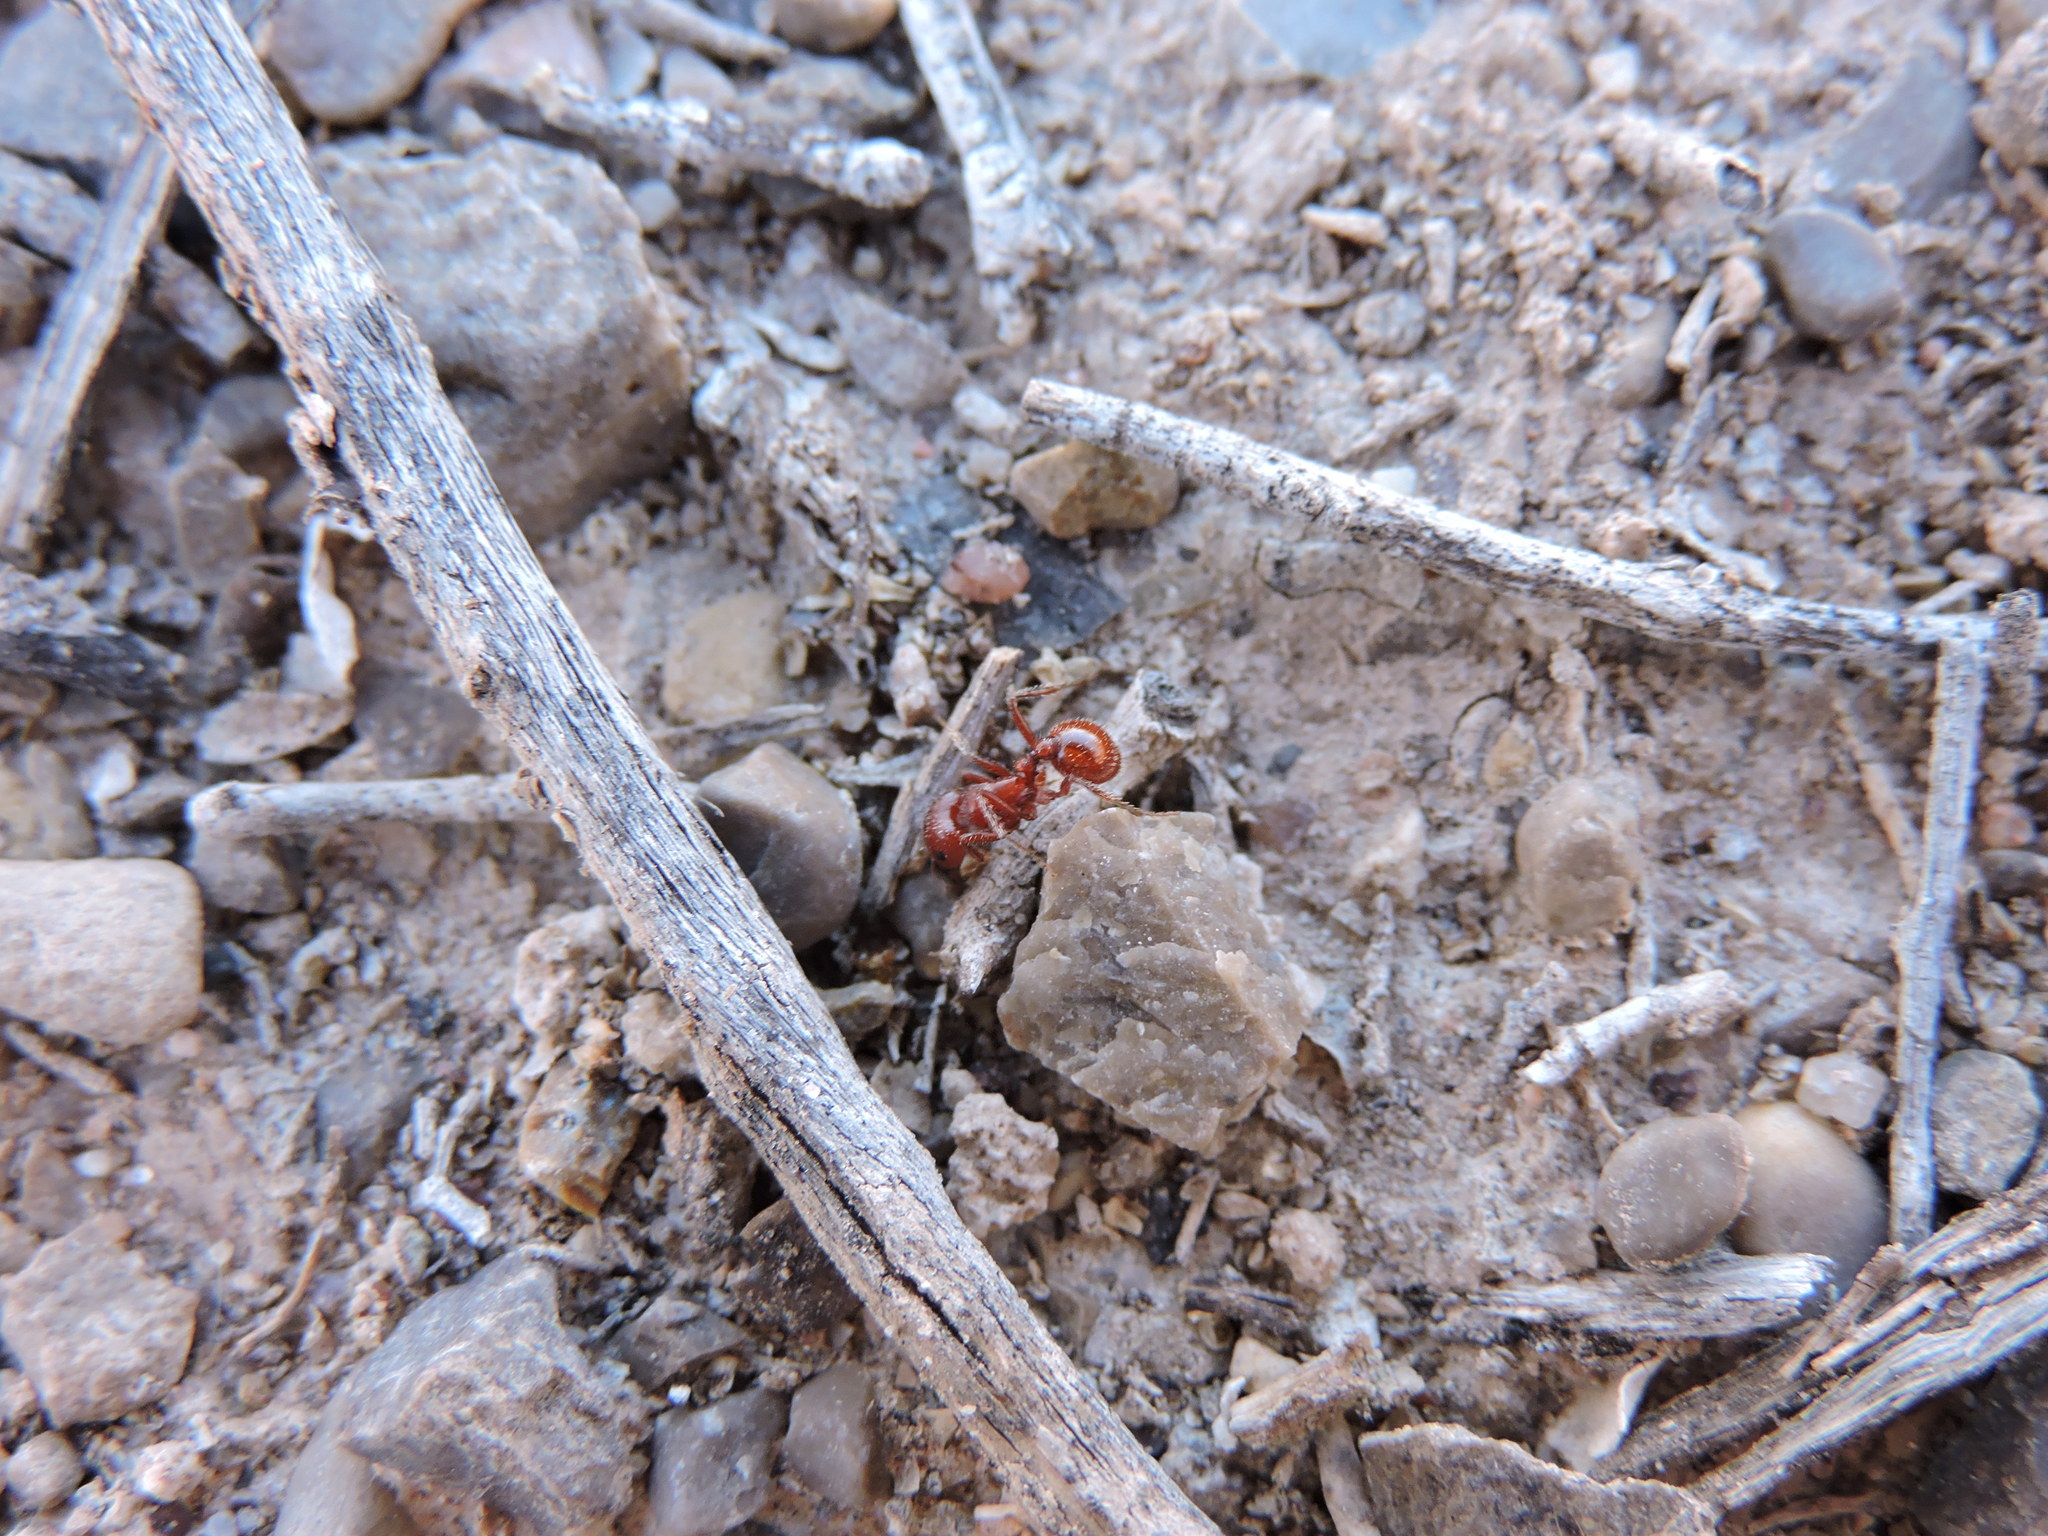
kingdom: Animalia
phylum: Arthropoda
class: Insecta
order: Hymenoptera
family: Formicidae
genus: Pogonomyrmex
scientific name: Pogonomyrmex desertorum
